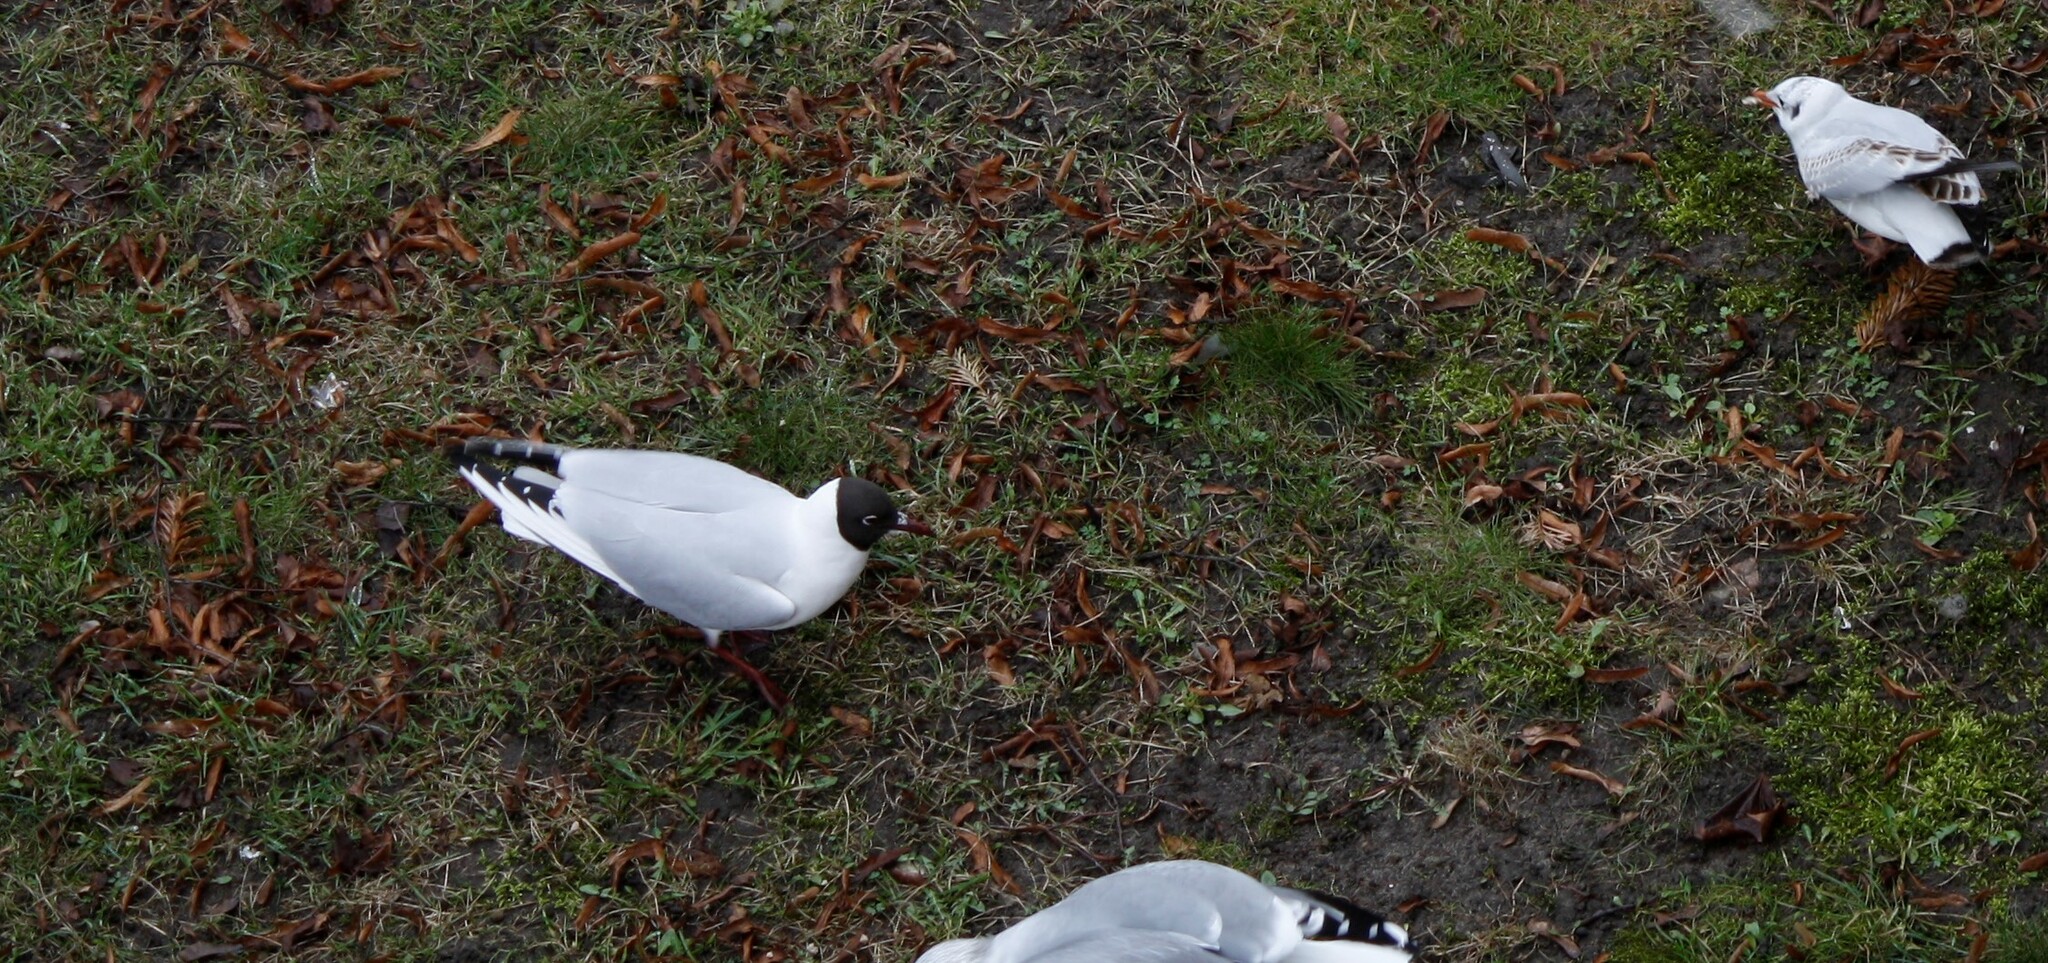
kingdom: Animalia
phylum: Chordata
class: Aves
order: Charadriiformes
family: Laridae
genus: Chroicocephalus
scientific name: Chroicocephalus ridibundus
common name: Black-headed gull
